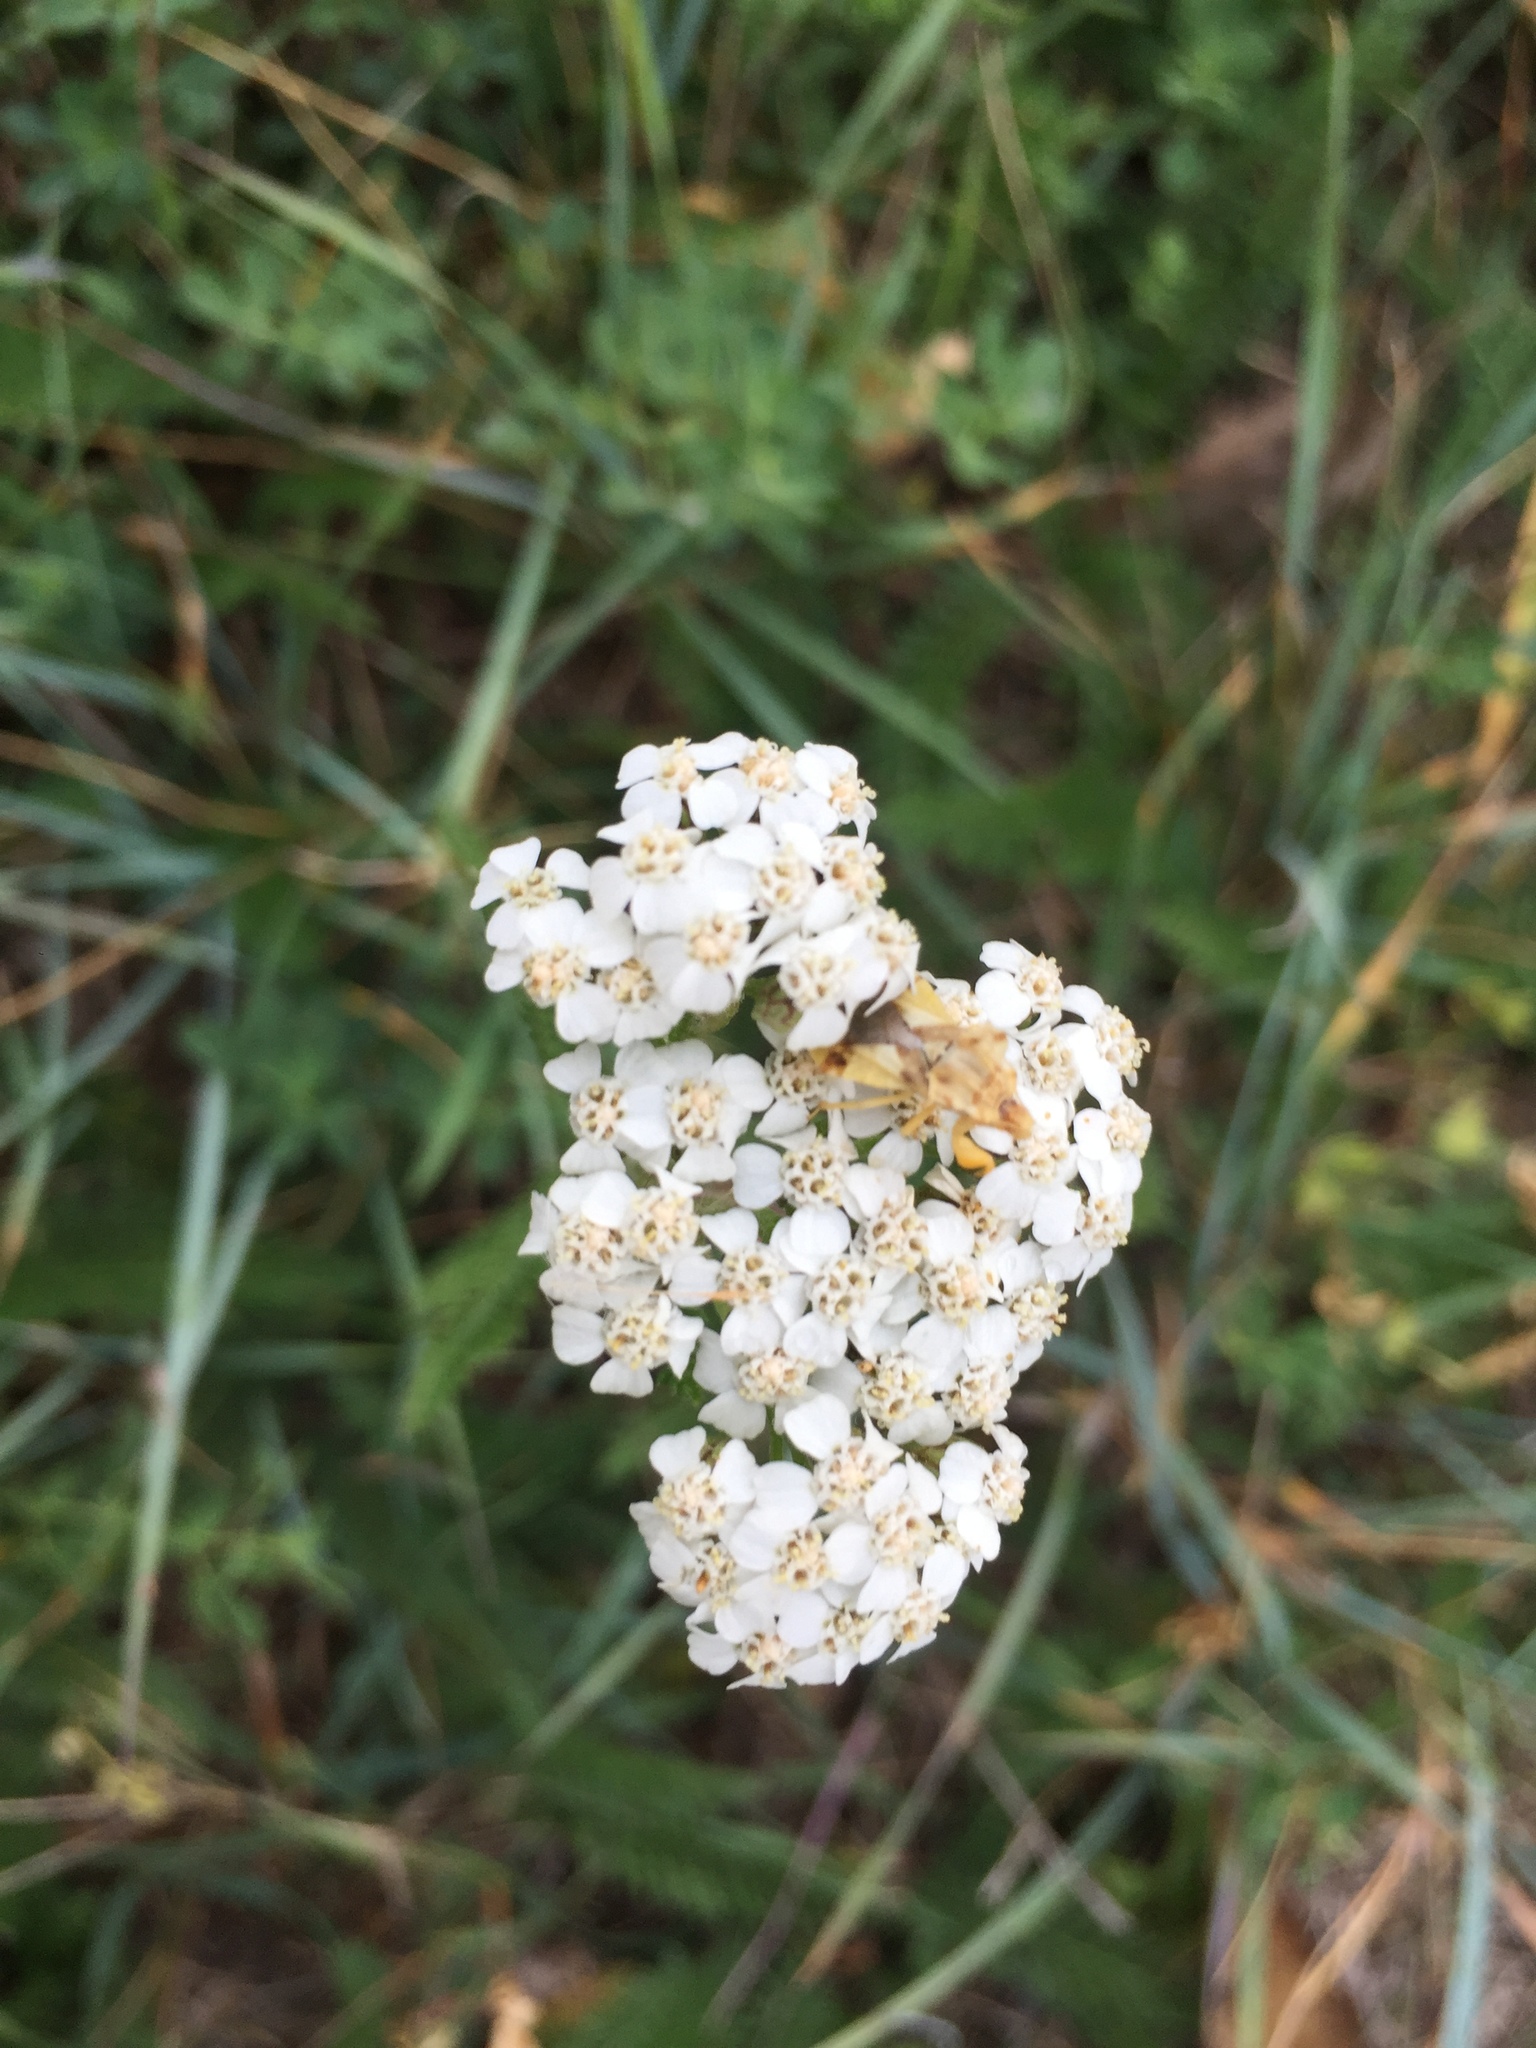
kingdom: Plantae
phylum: Tracheophyta
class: Magnoliopsida
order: Asterales
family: Asteraceae
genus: Achillea
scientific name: Achillea millefolium
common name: Yarrow
